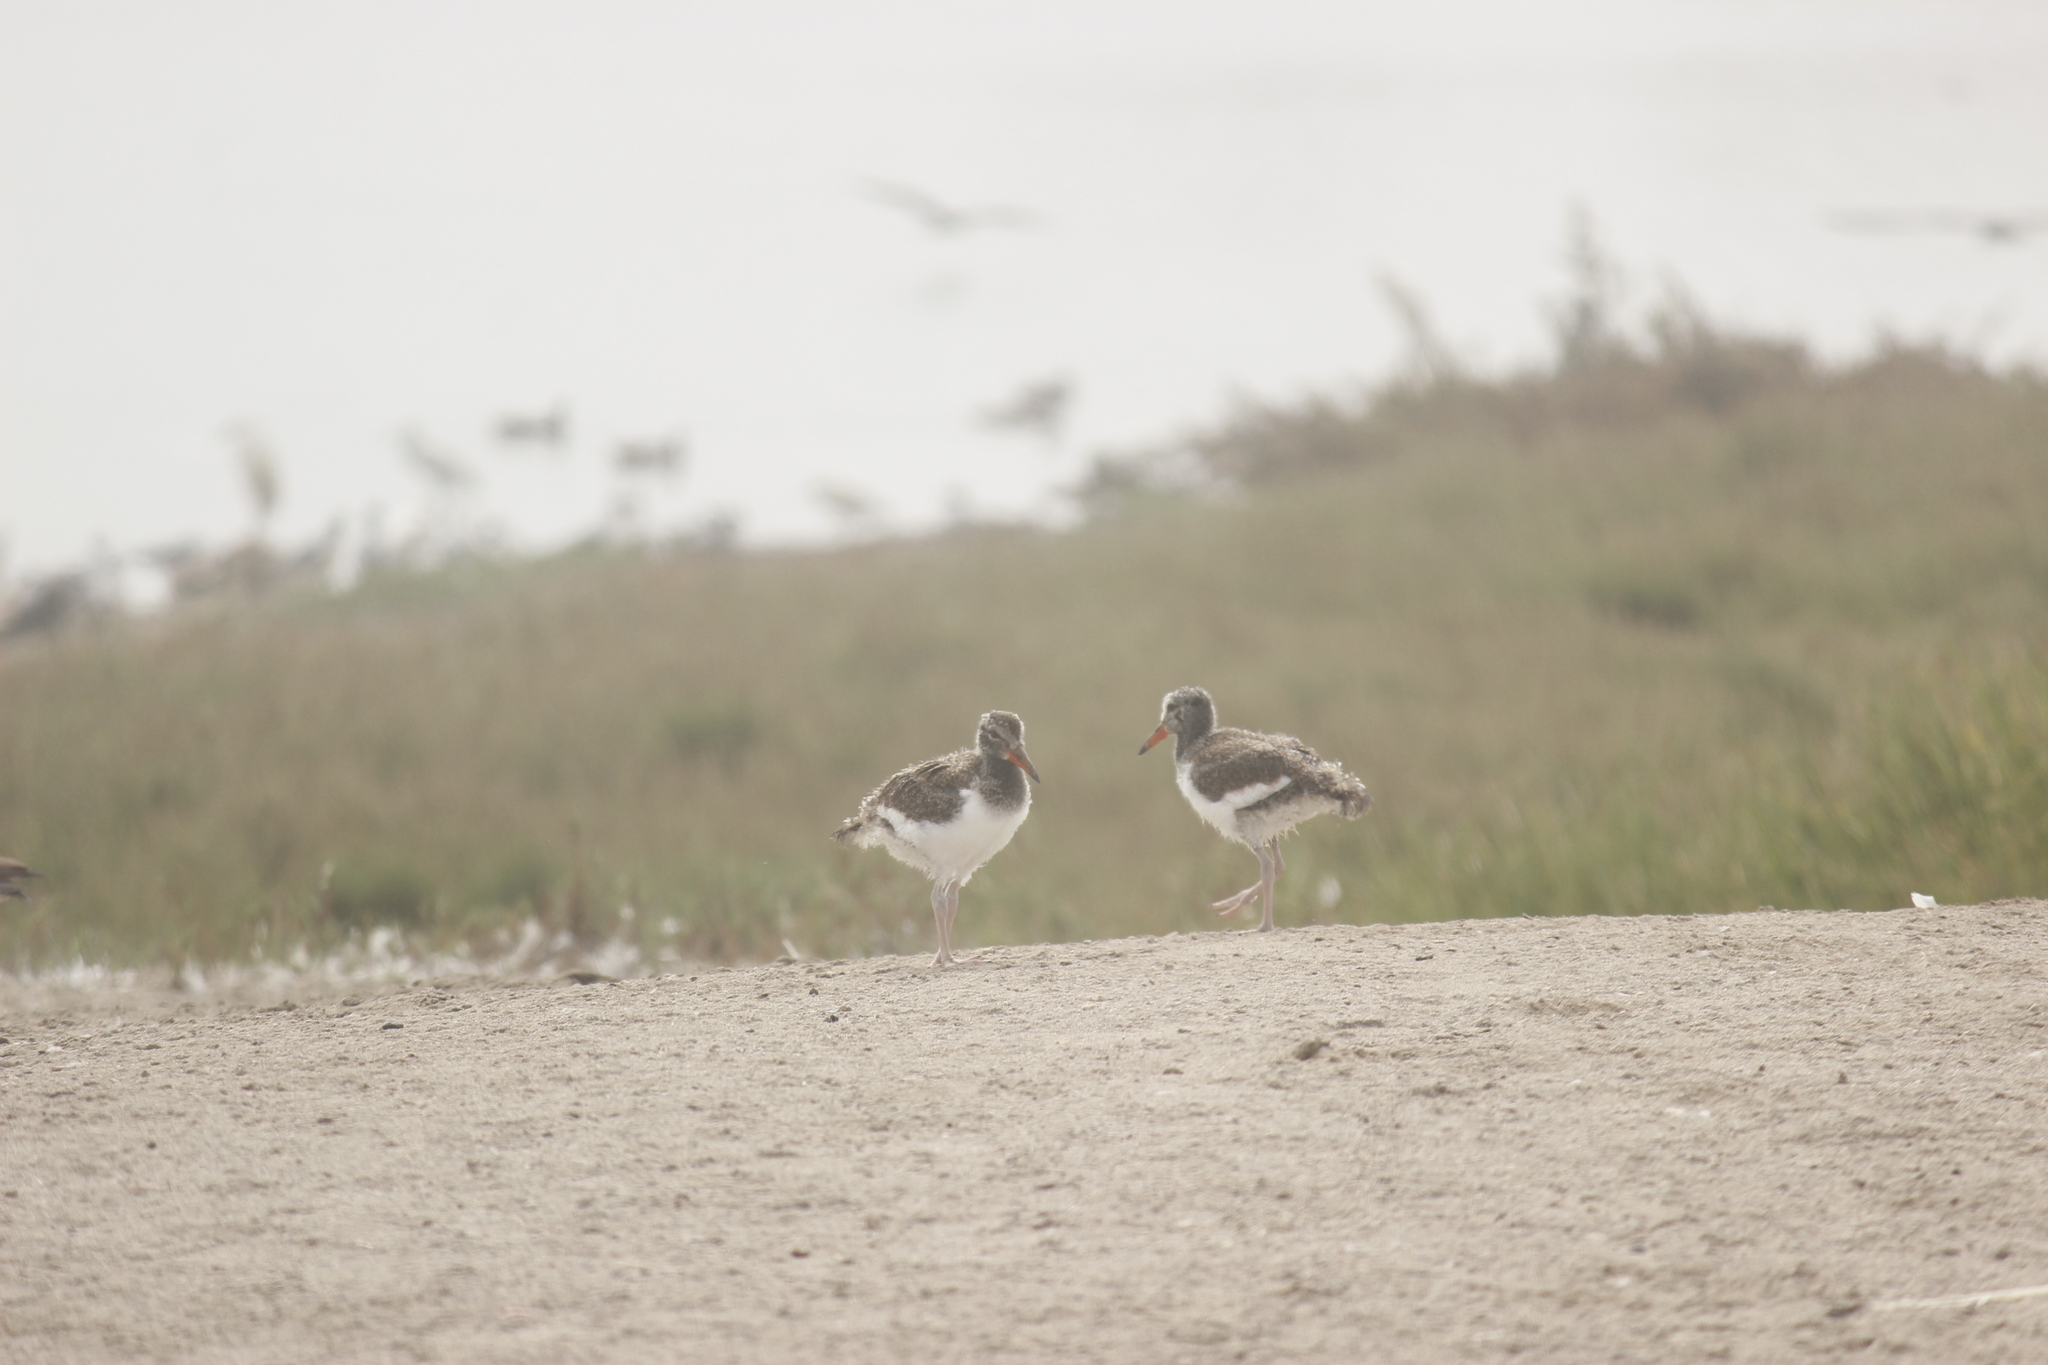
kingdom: Animalia
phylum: Chordata
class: Aves
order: Charadriiformes
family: Haematopodidae
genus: Haematopus
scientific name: Haematopus palliatus
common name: American oystercatcher
